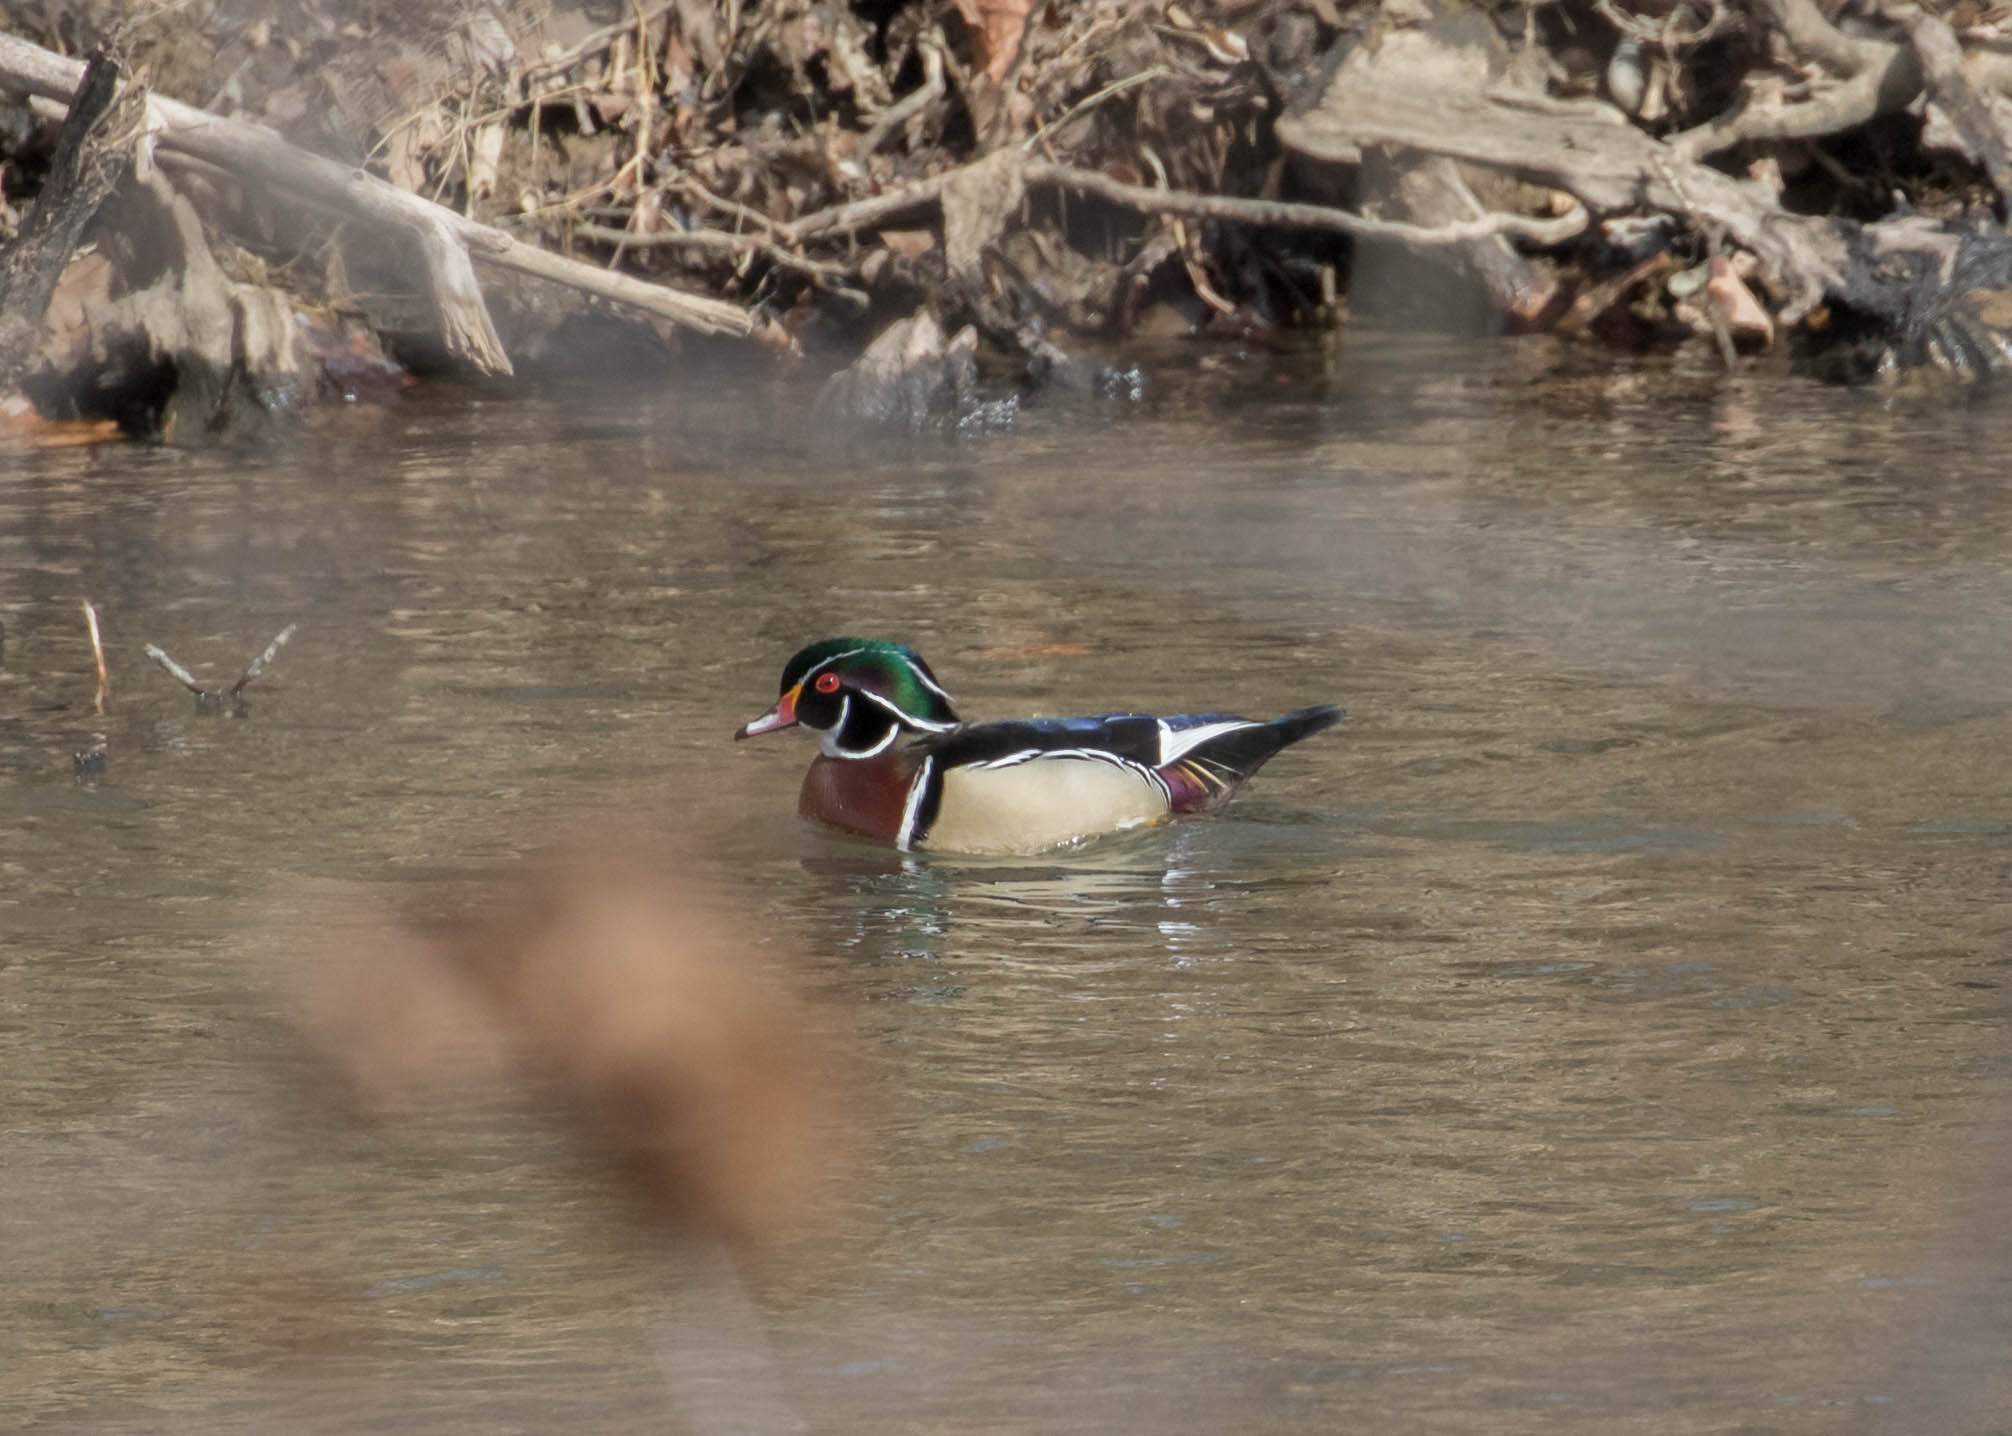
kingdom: Animalia
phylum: Chordata
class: Aves
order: Anseriformes
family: Anatidae
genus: Aix
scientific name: Aix sponsa
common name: Wood duck
